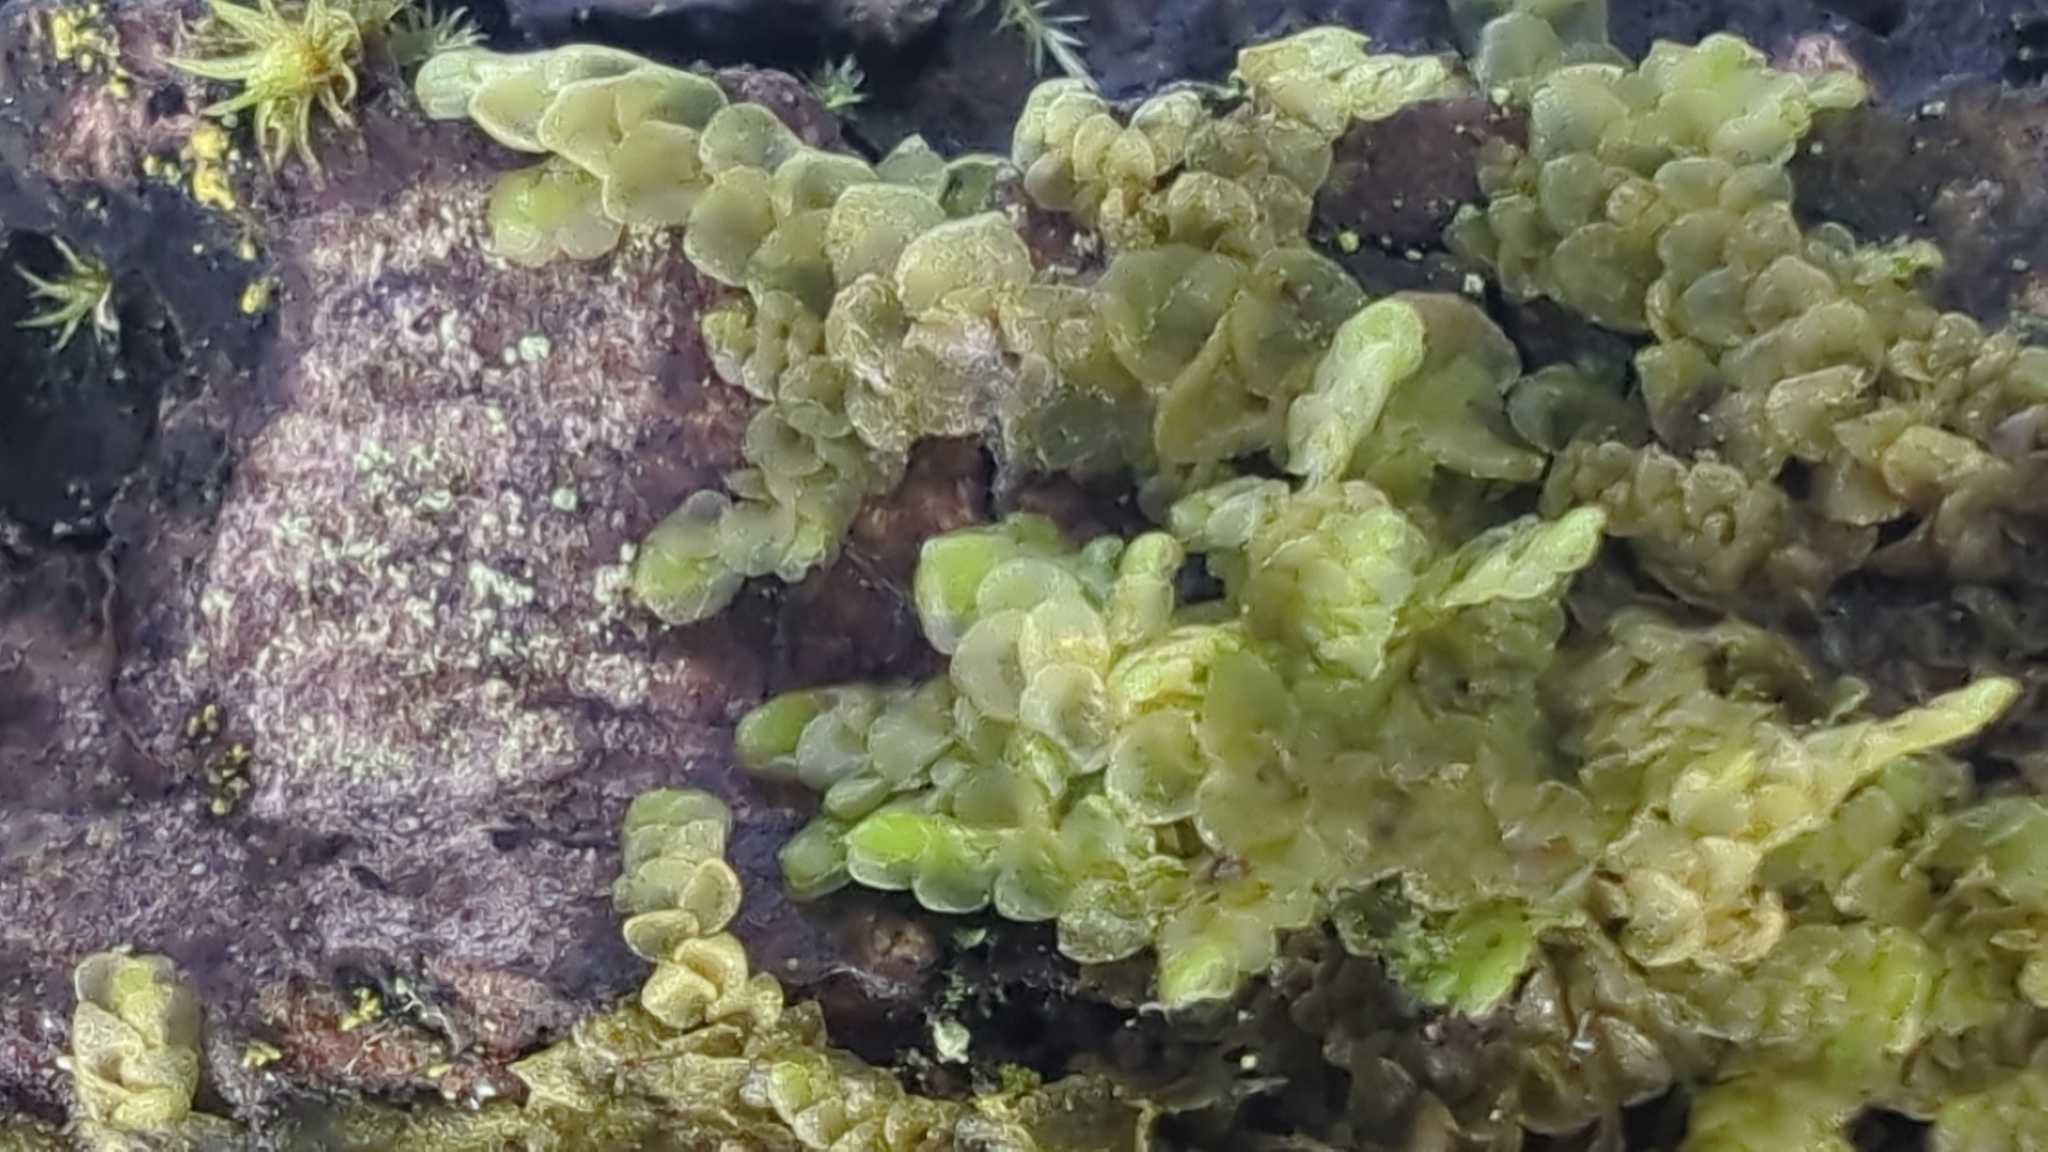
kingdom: Plantae
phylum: Marchantiophyta
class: Jungermanniopsida
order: Porellales
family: Radulaceae
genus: Radula
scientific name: Radula complanata
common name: Flat-leaved scalewort
